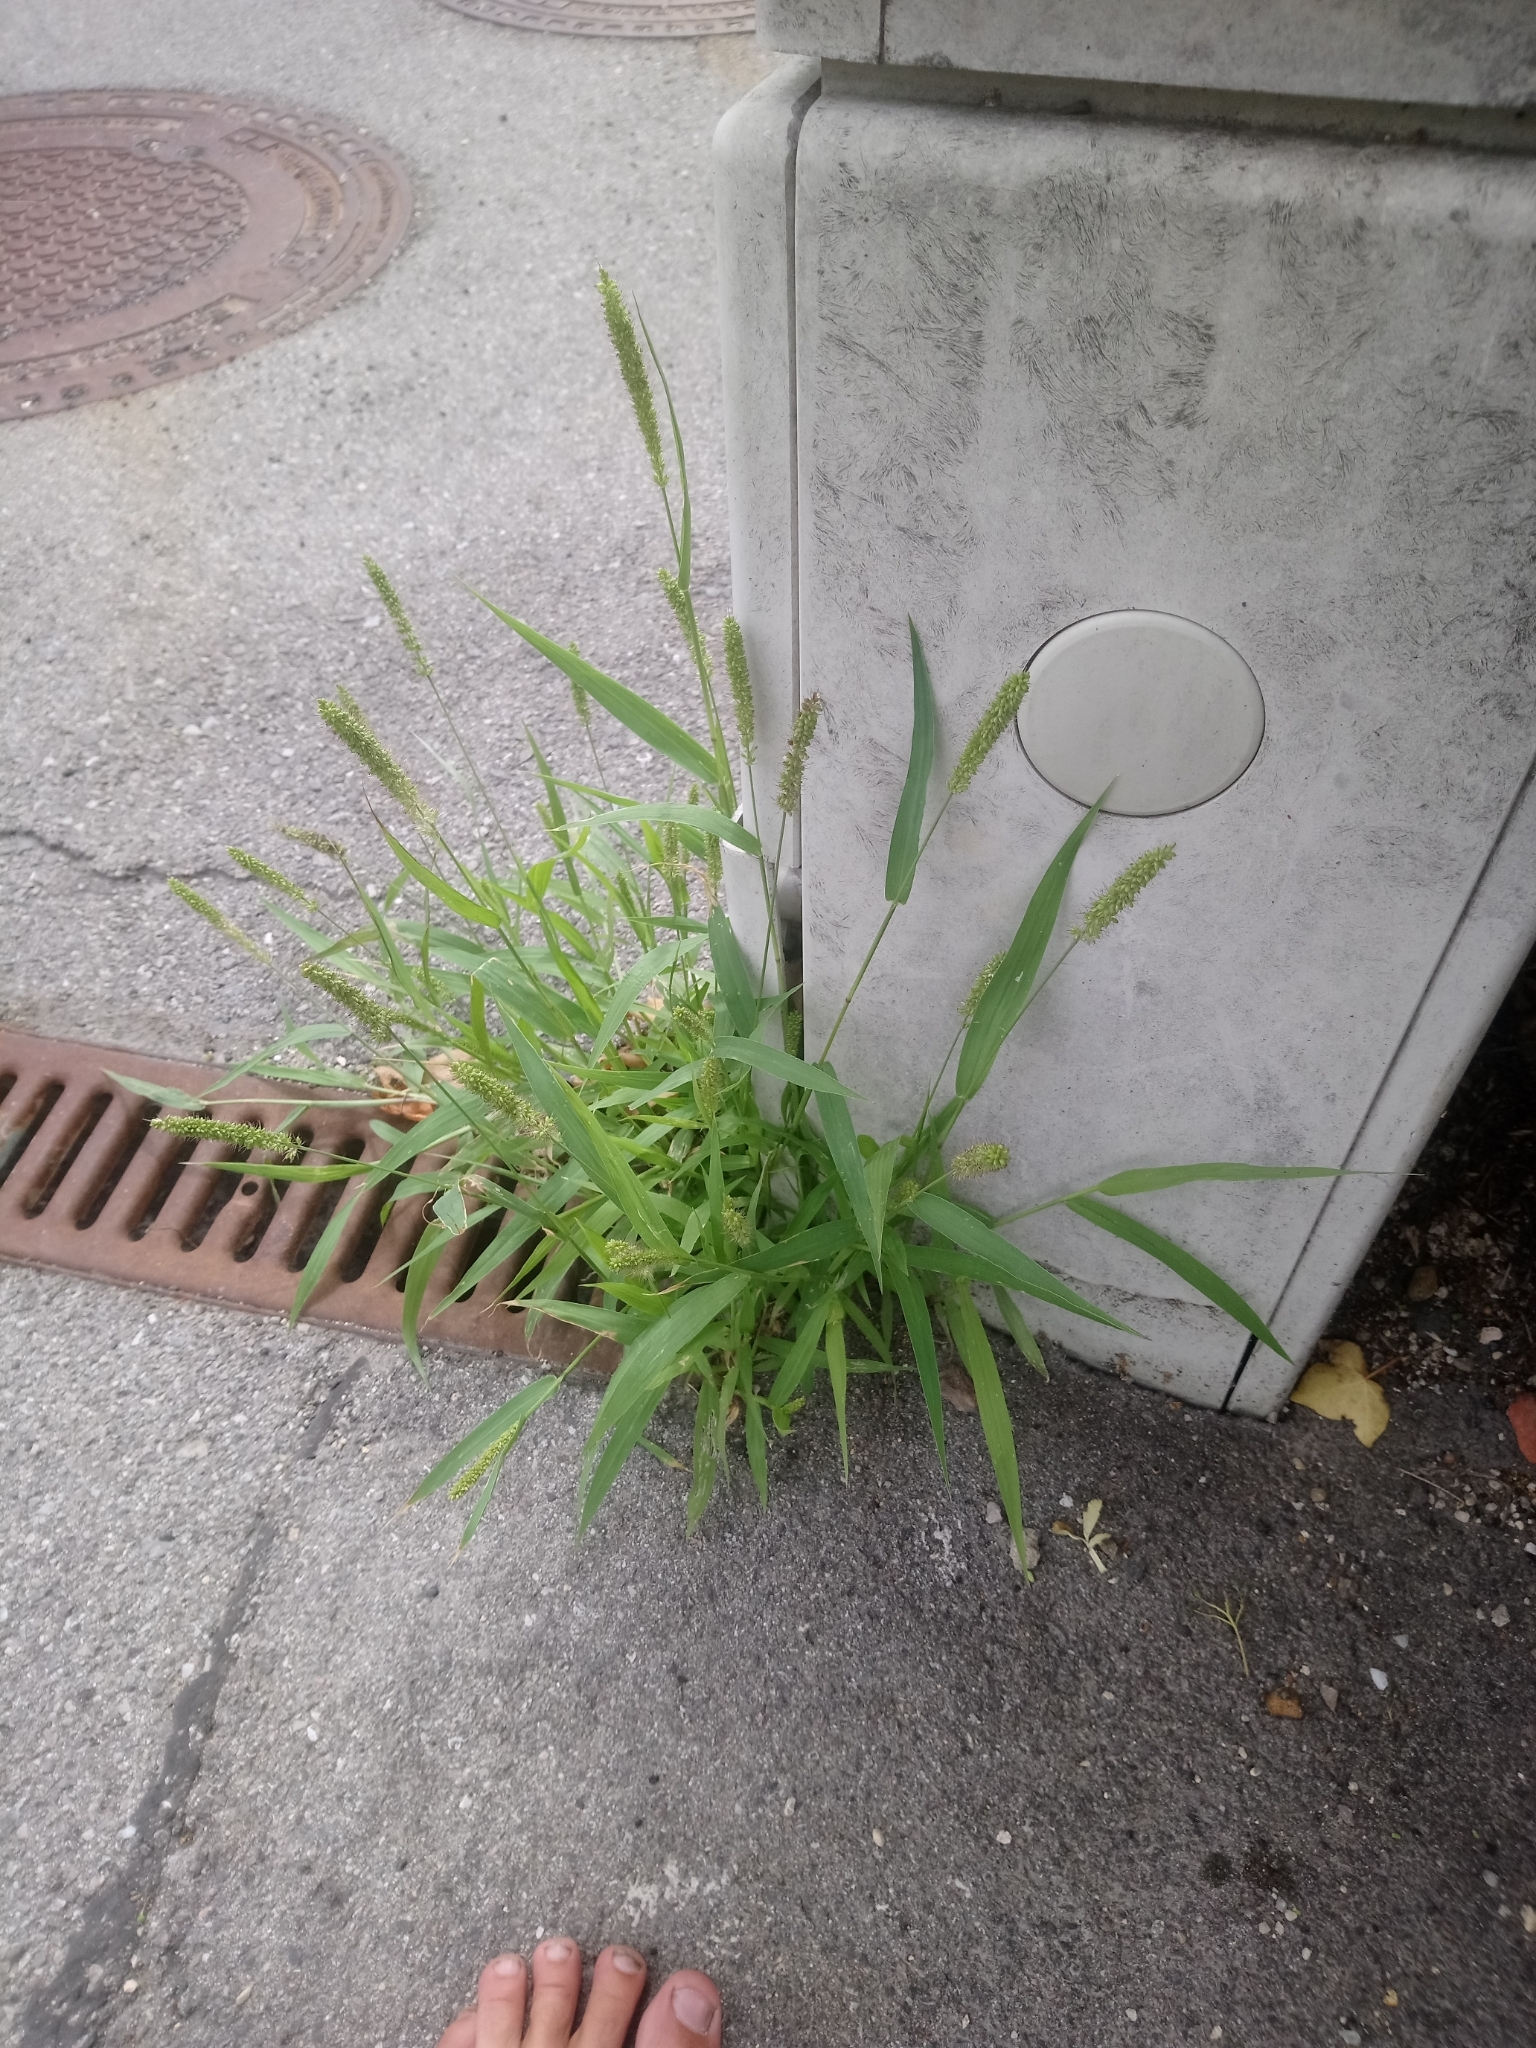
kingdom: Plantae
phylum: Tracheophyta
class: Liliopsida
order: Poales
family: Poaceae
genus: Setaria
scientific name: Setaria verticillata
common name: Hooked bristlegrass
